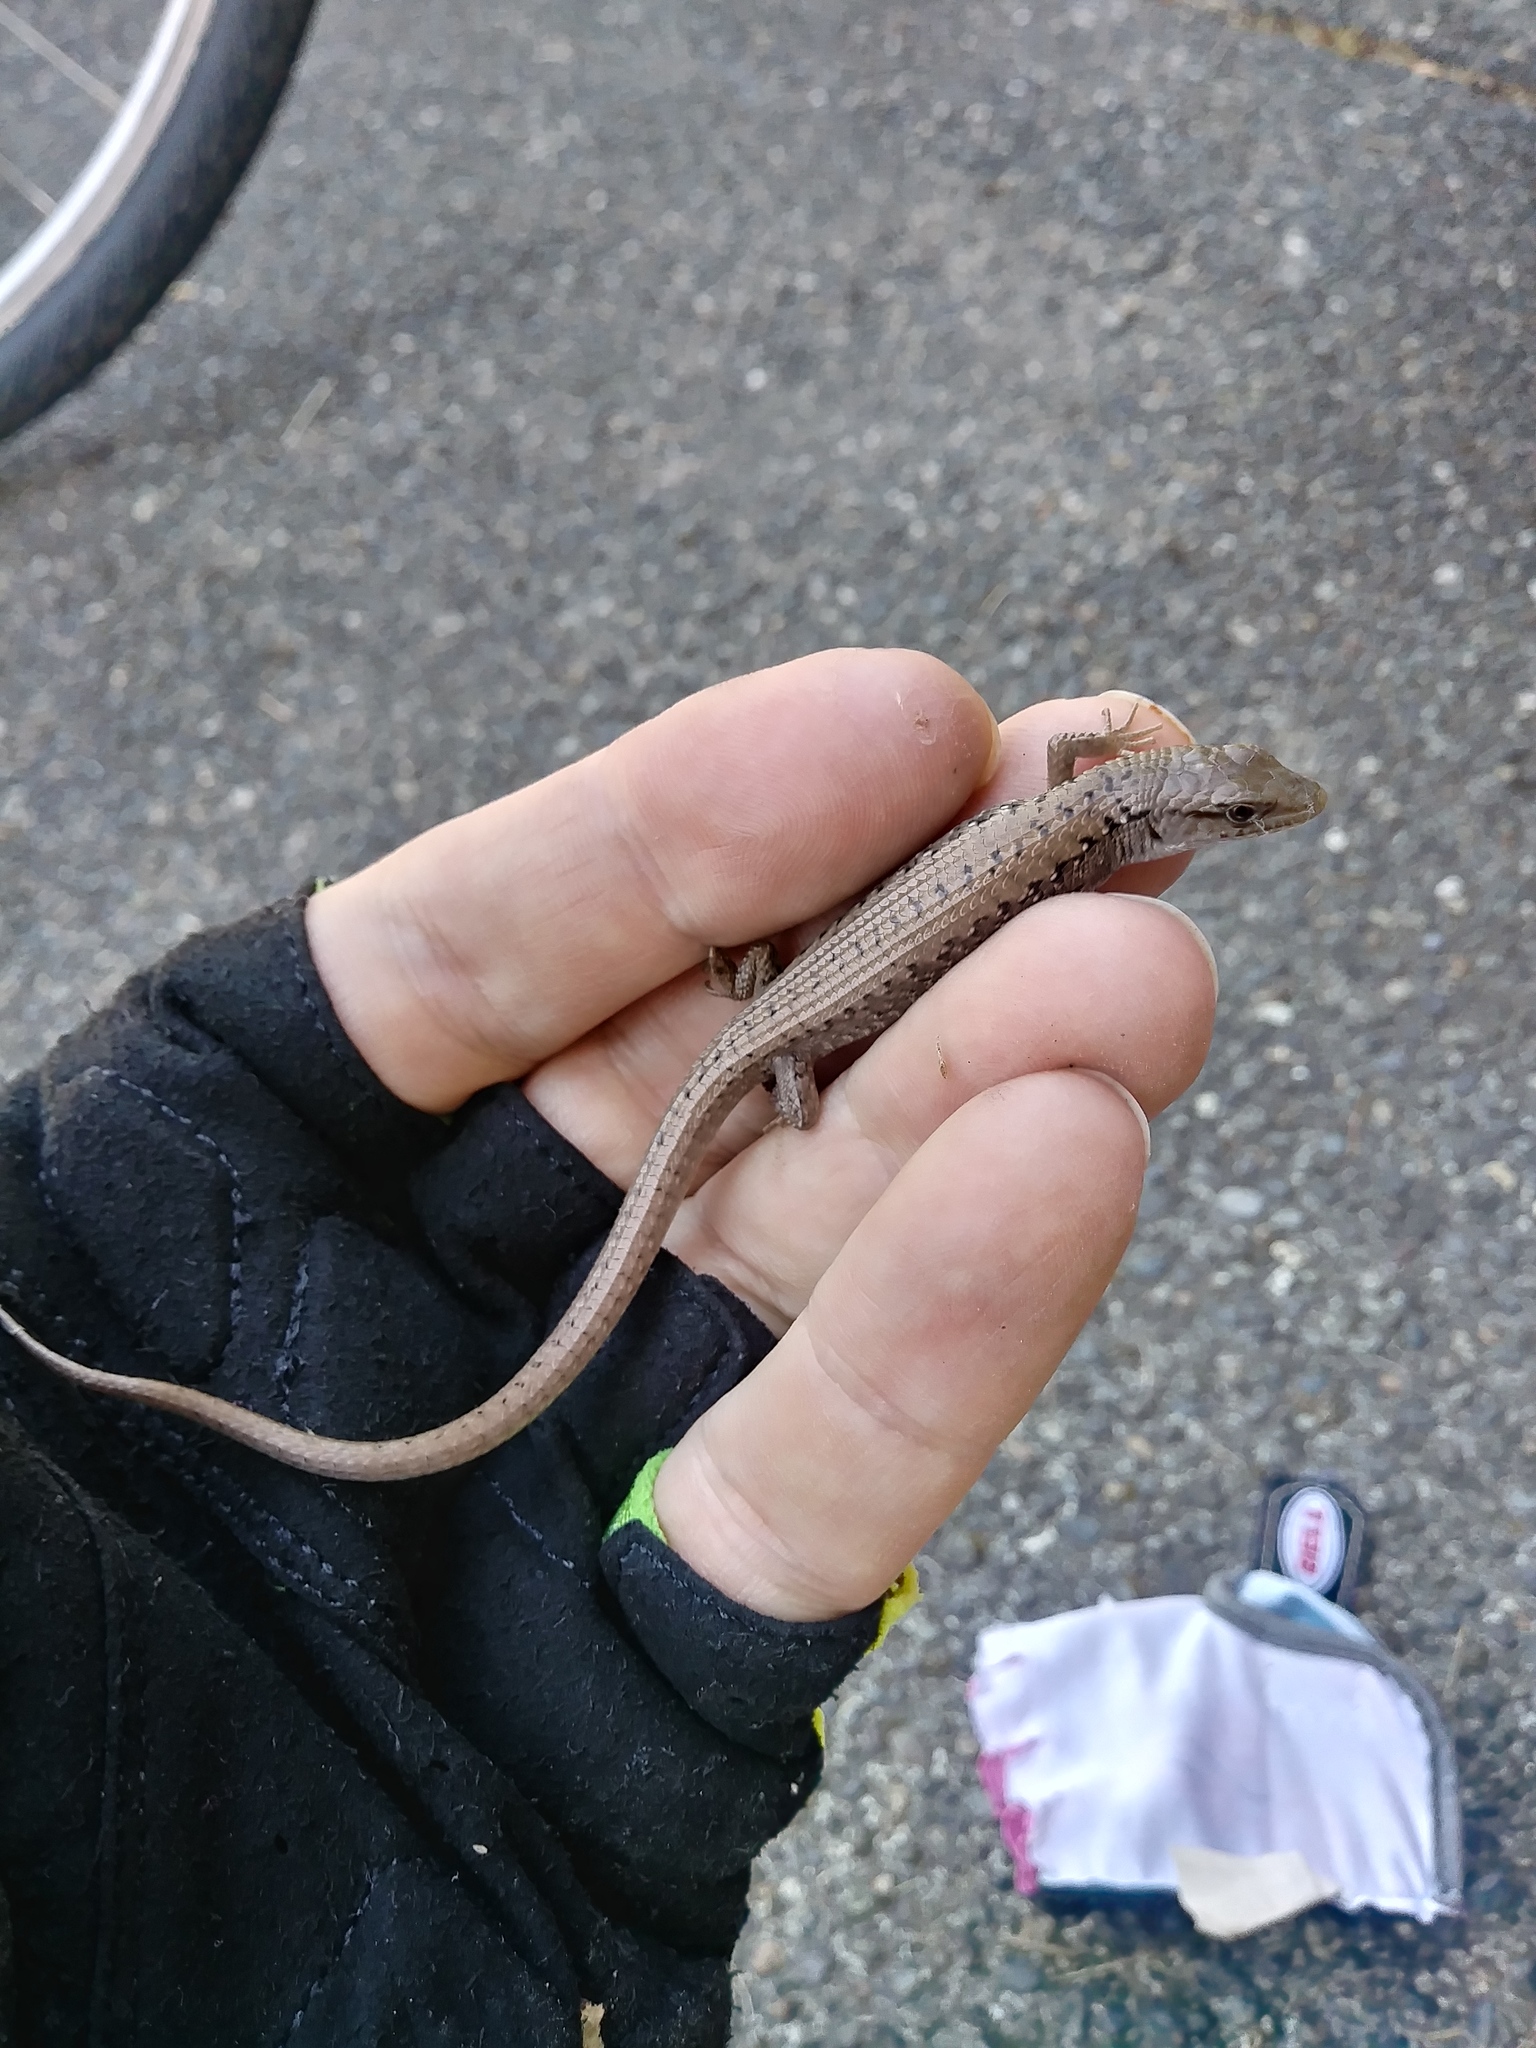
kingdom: Animalia
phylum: Chordata
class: Squamata
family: Anguidae
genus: Elgaria
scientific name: Elgaria coerulea
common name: Northern alligator lizard
